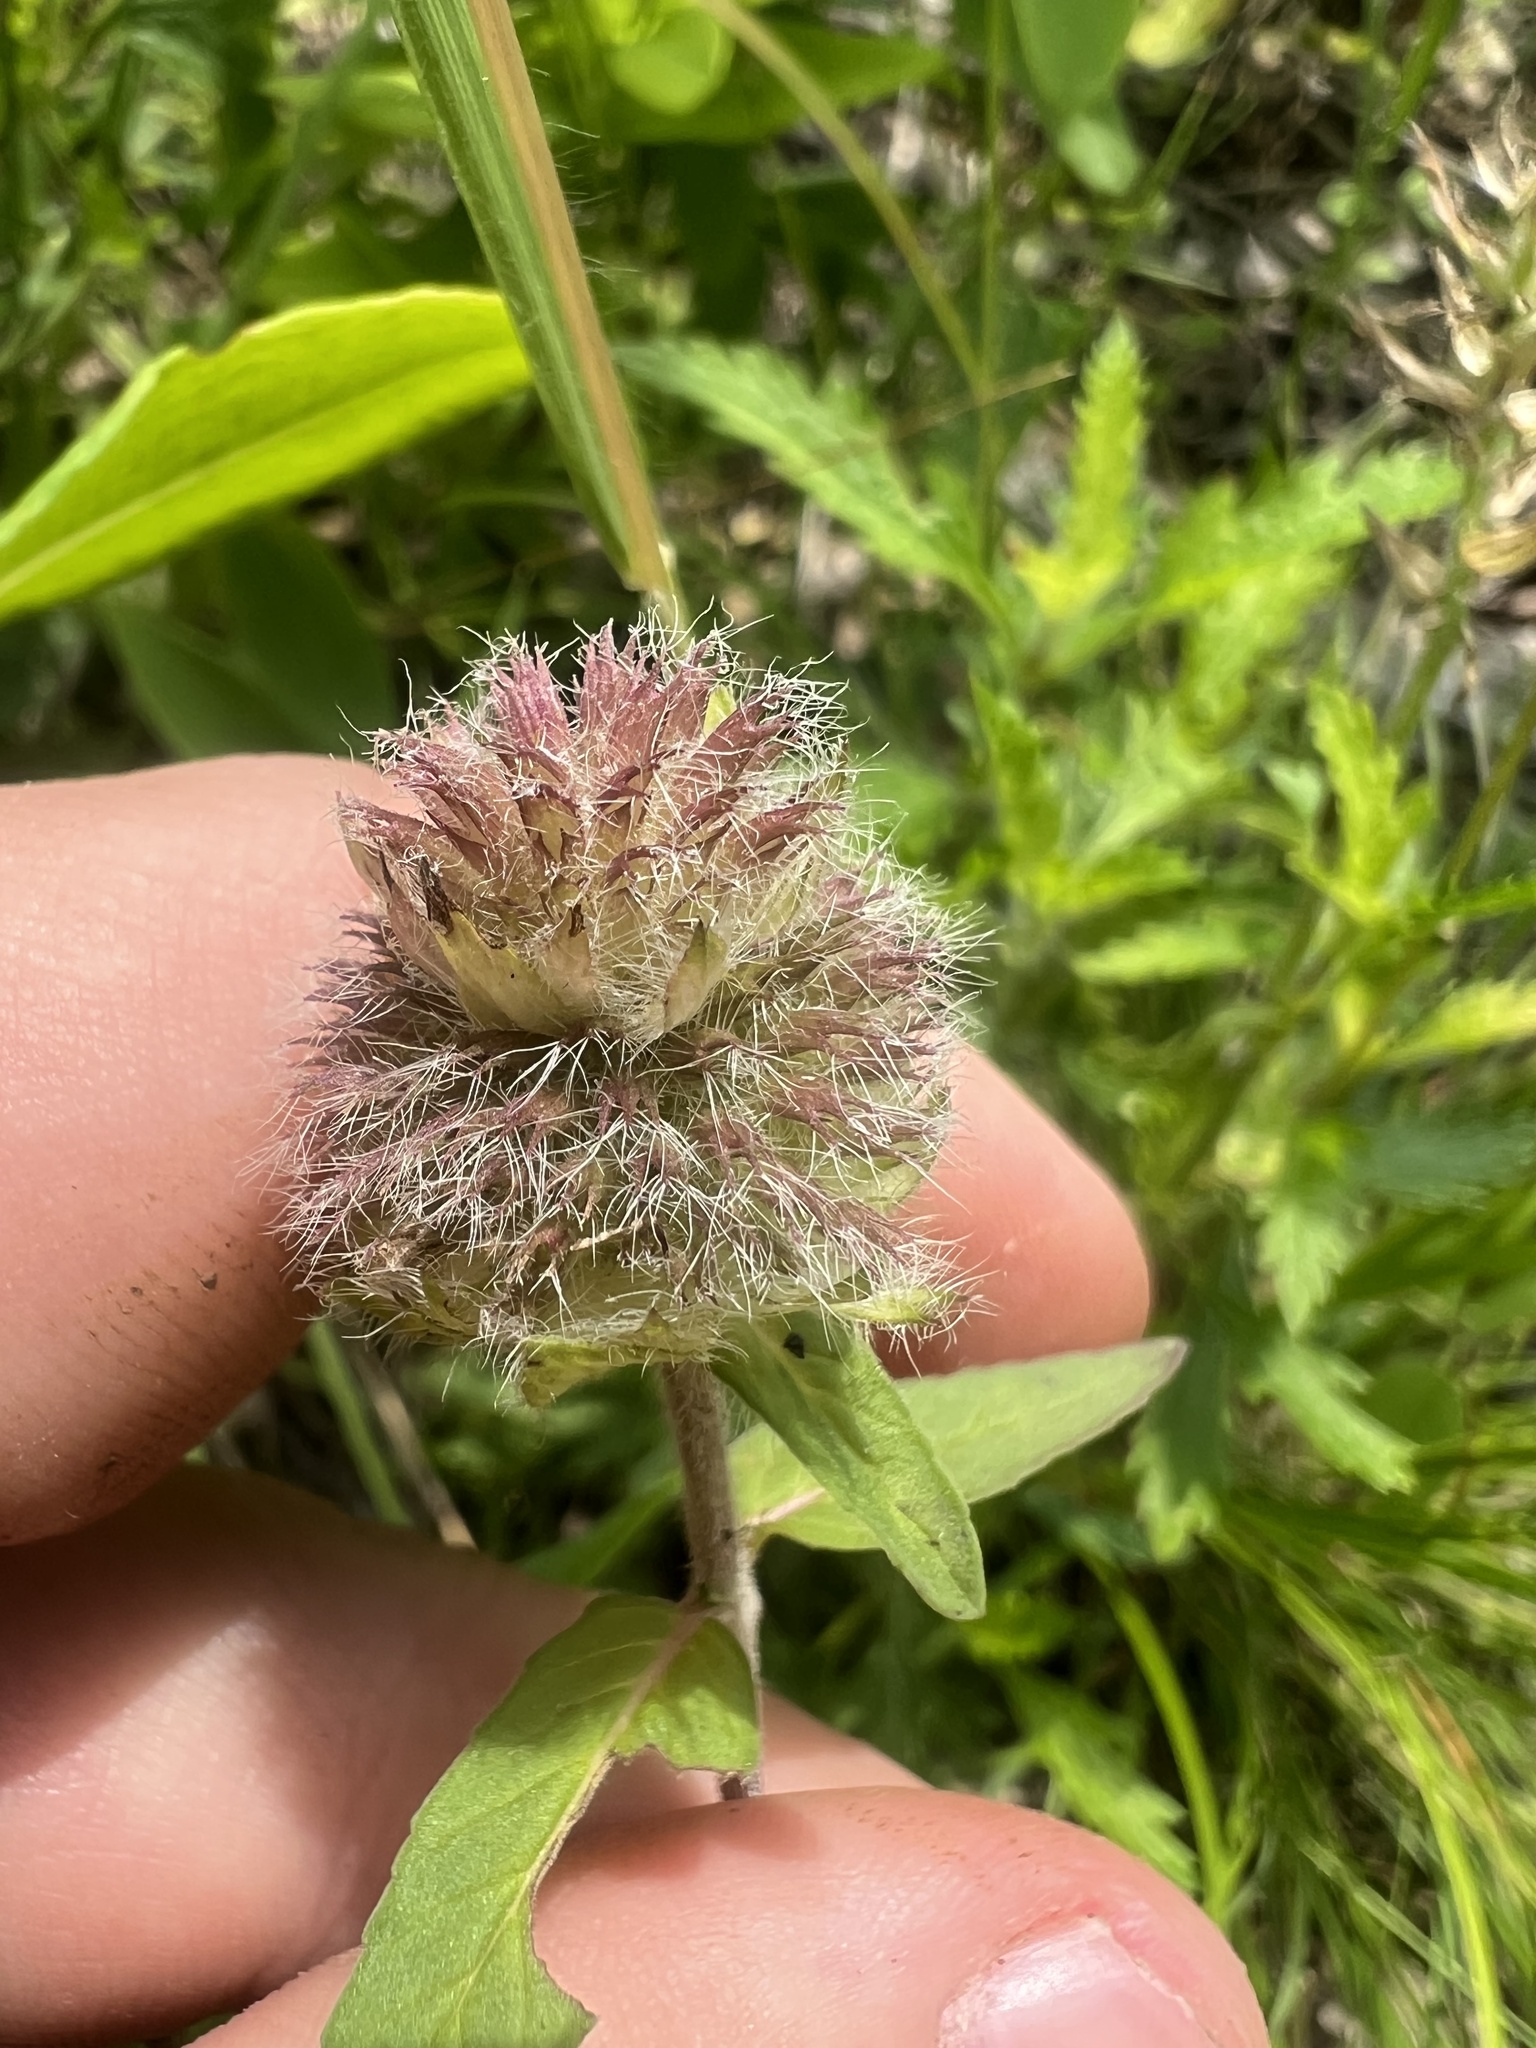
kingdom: Plantae
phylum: Tracheophyta
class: Magnoliopsida
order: Lamiales
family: Lamiaceae
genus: Blephilia
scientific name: Blephilia ciliata
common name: Downy blephilia
